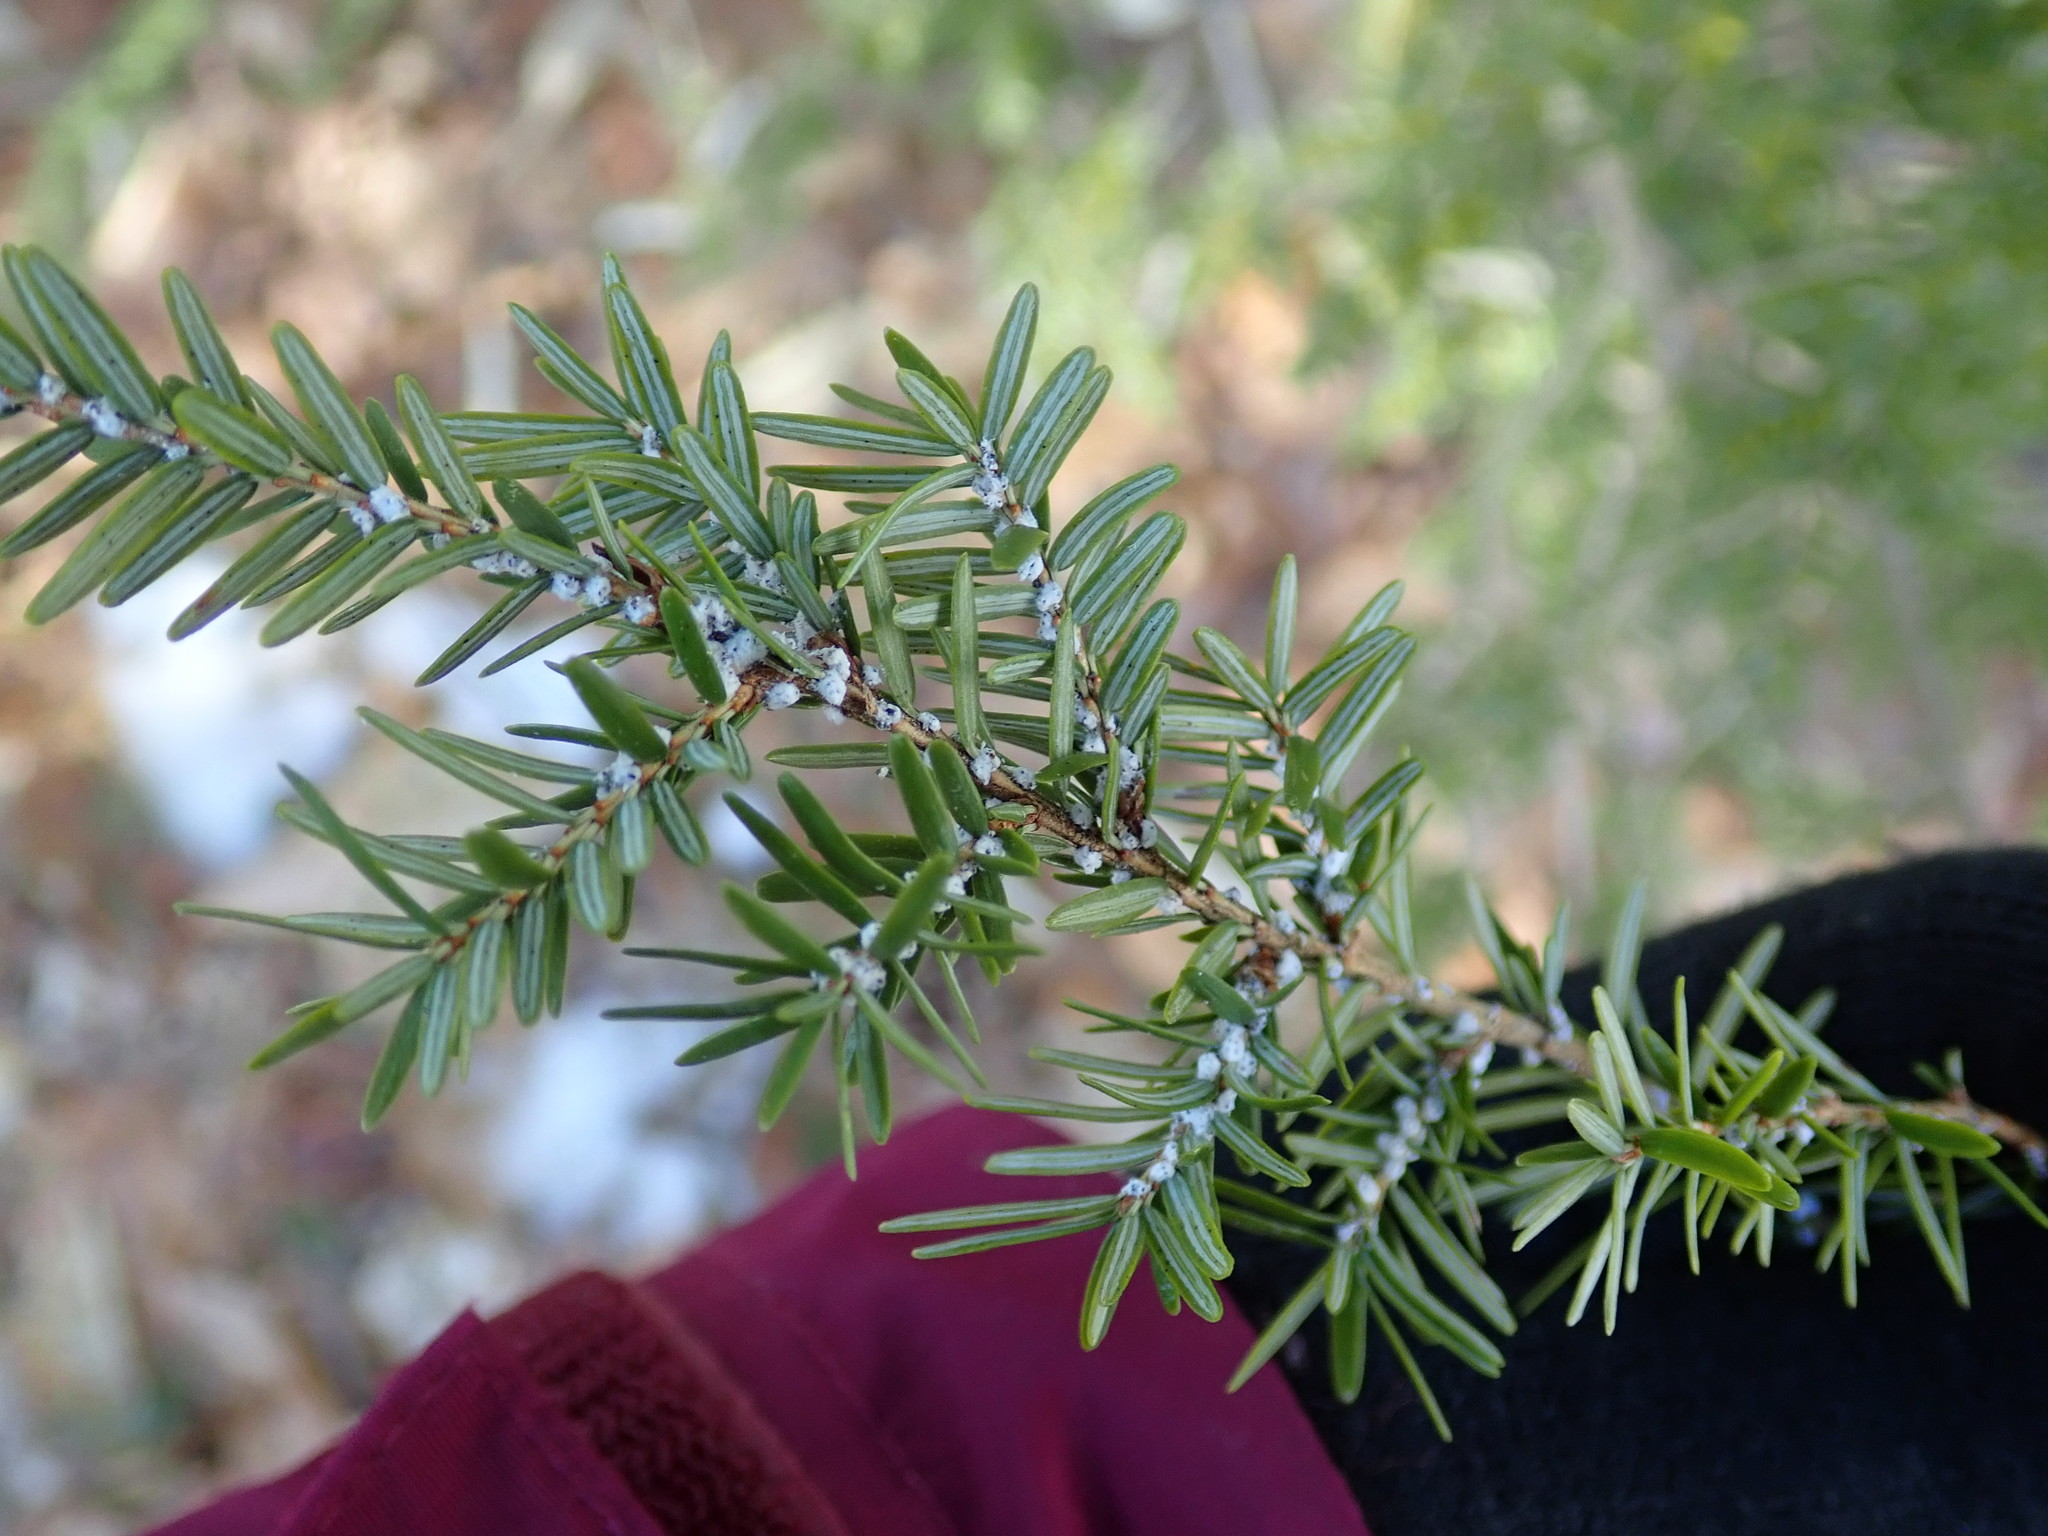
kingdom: Animalia
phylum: Arthropoda
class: Insecta
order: Hemiptera
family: Adelgidae
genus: Adelges
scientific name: Adelges tsugae
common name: Hemlock woolly adelgid
